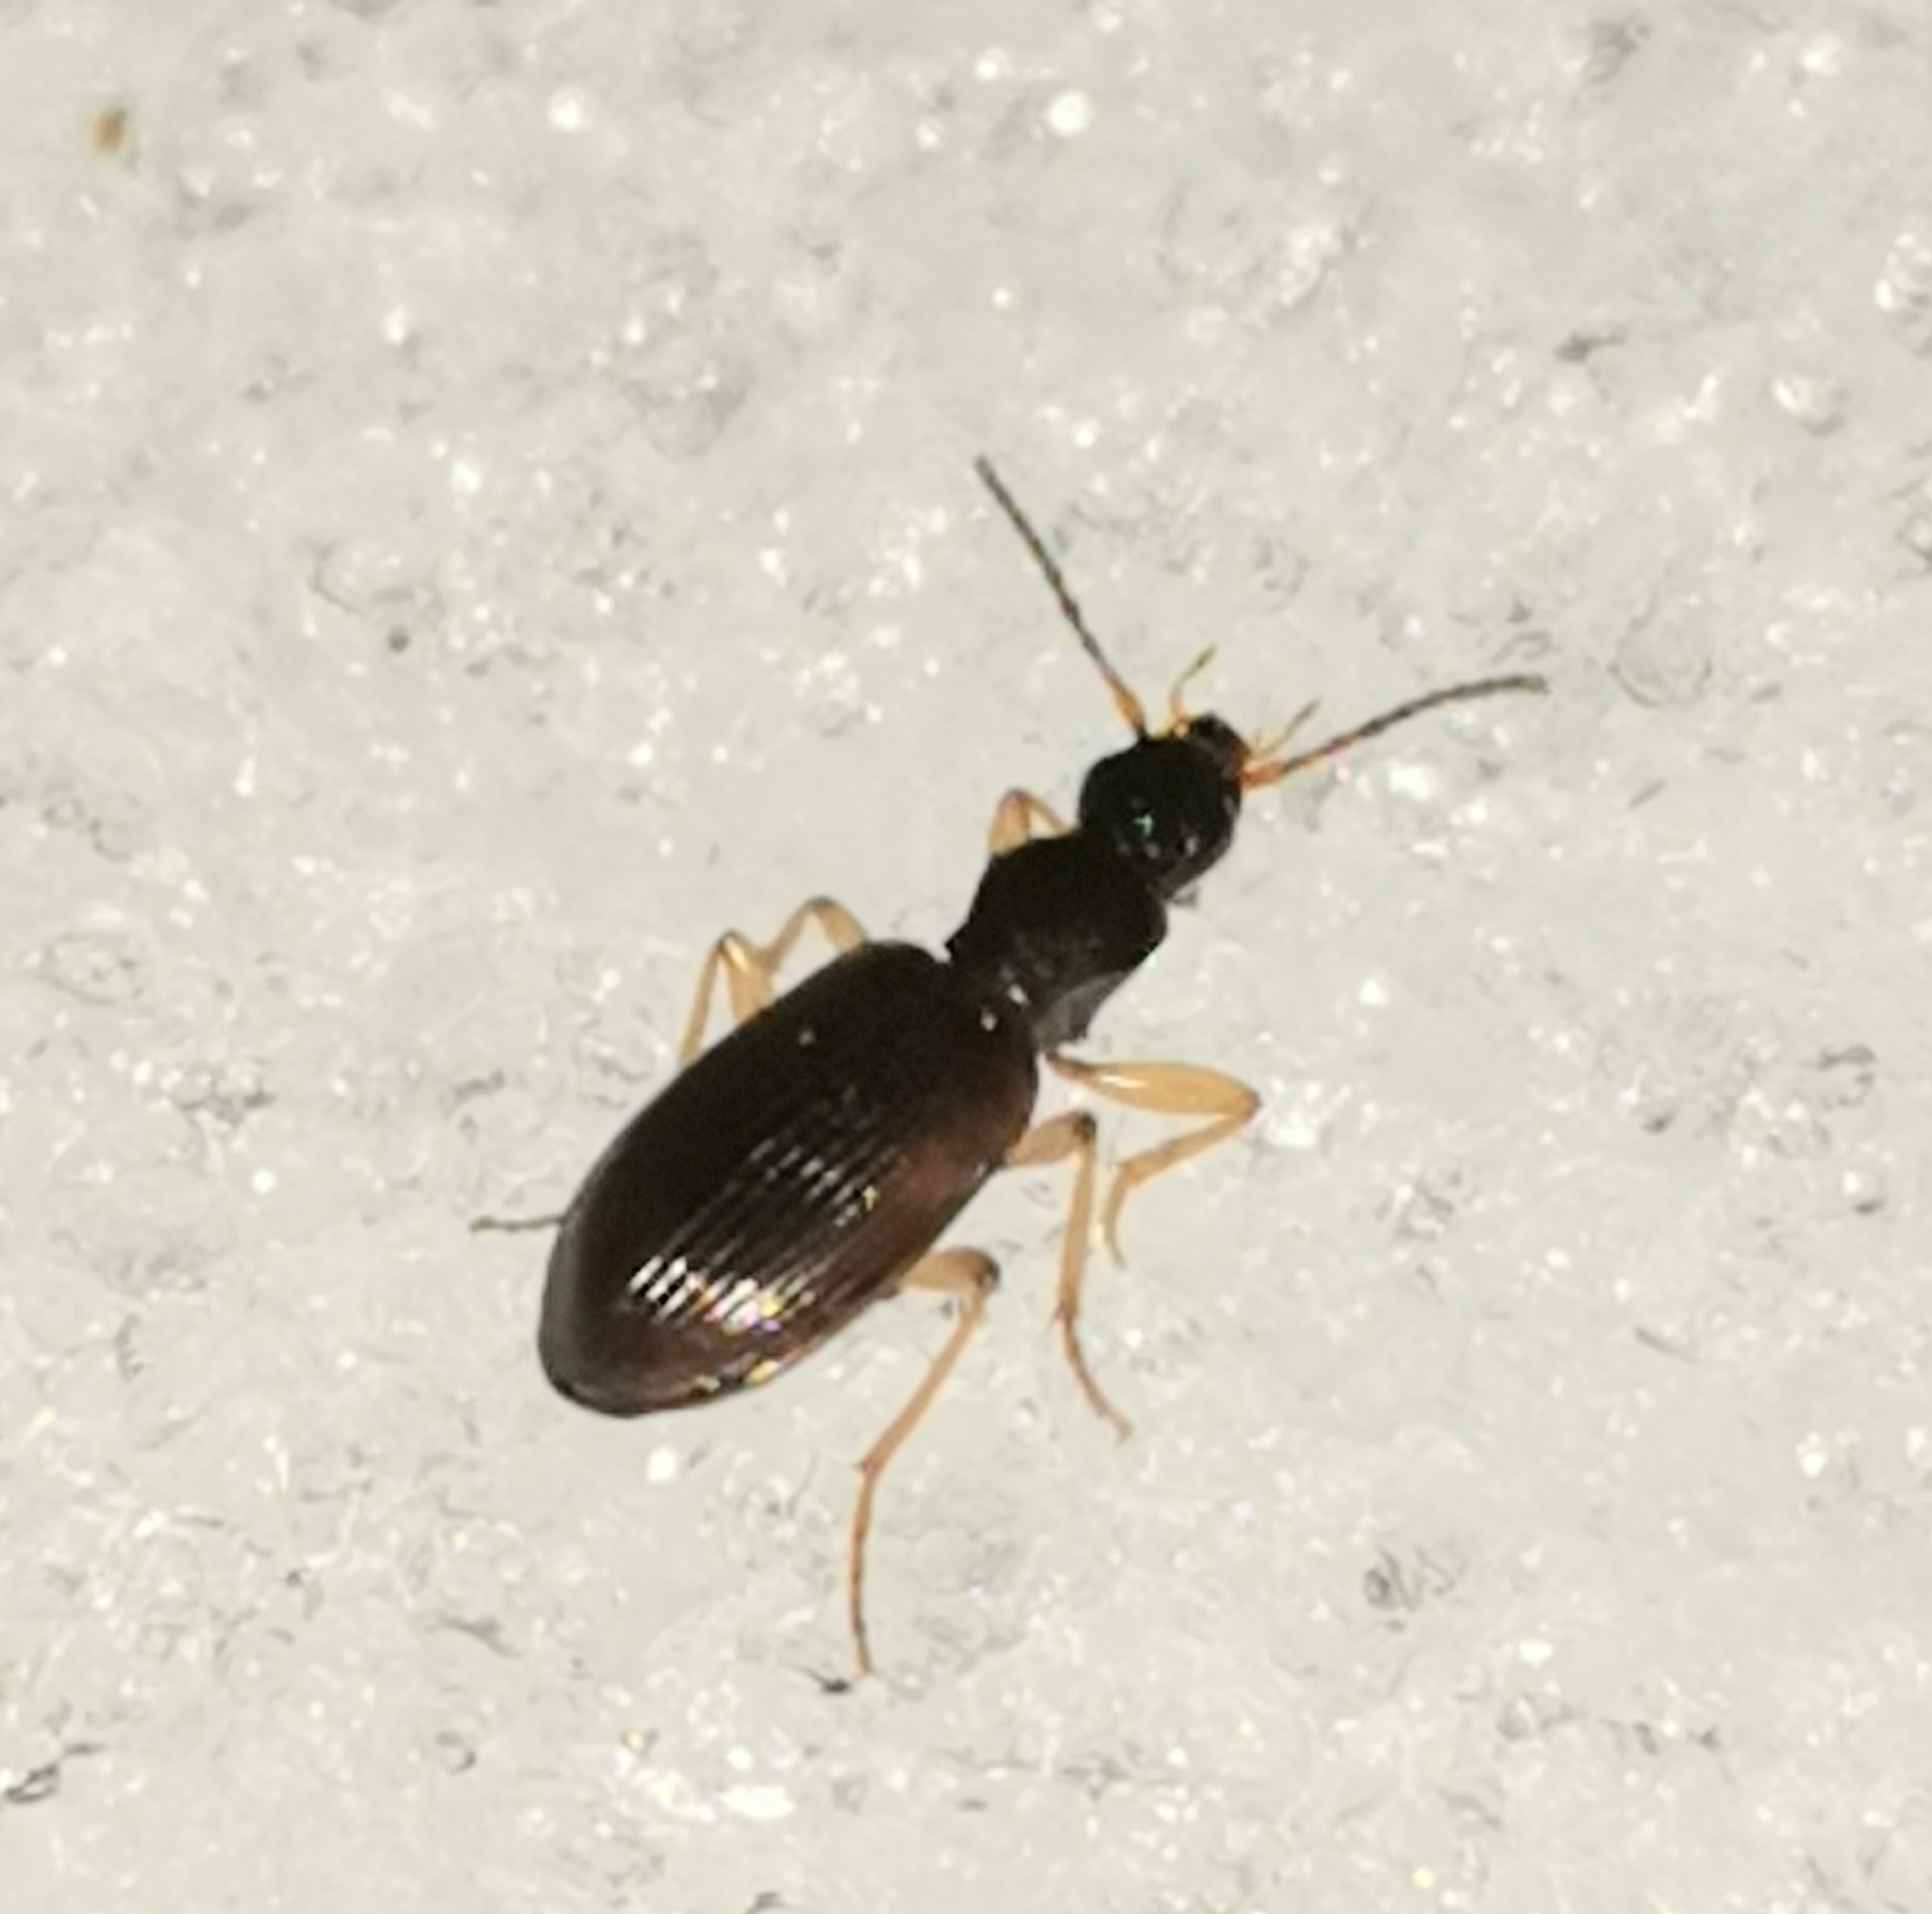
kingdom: Animalia
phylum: Arthropoda
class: Insecta
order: Coleoptera
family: Carabidae
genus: Oxypselaphus
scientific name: Oxypselaphus obscurus
